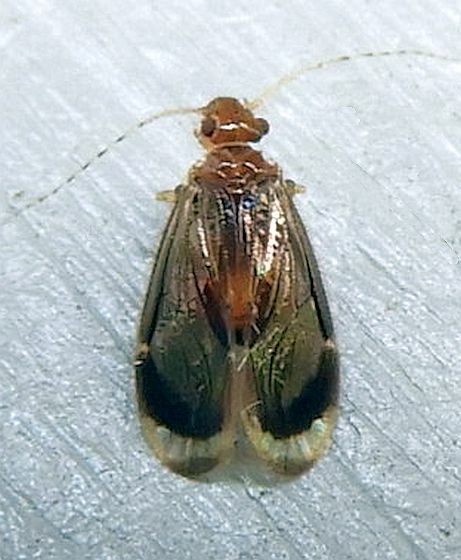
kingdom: Animalia
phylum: Arthropoda
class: Insecta
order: Psocodea
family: Amphipsocidae
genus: Polypsocus
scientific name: Polypsocus corruptus
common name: Corrupt barklouse
